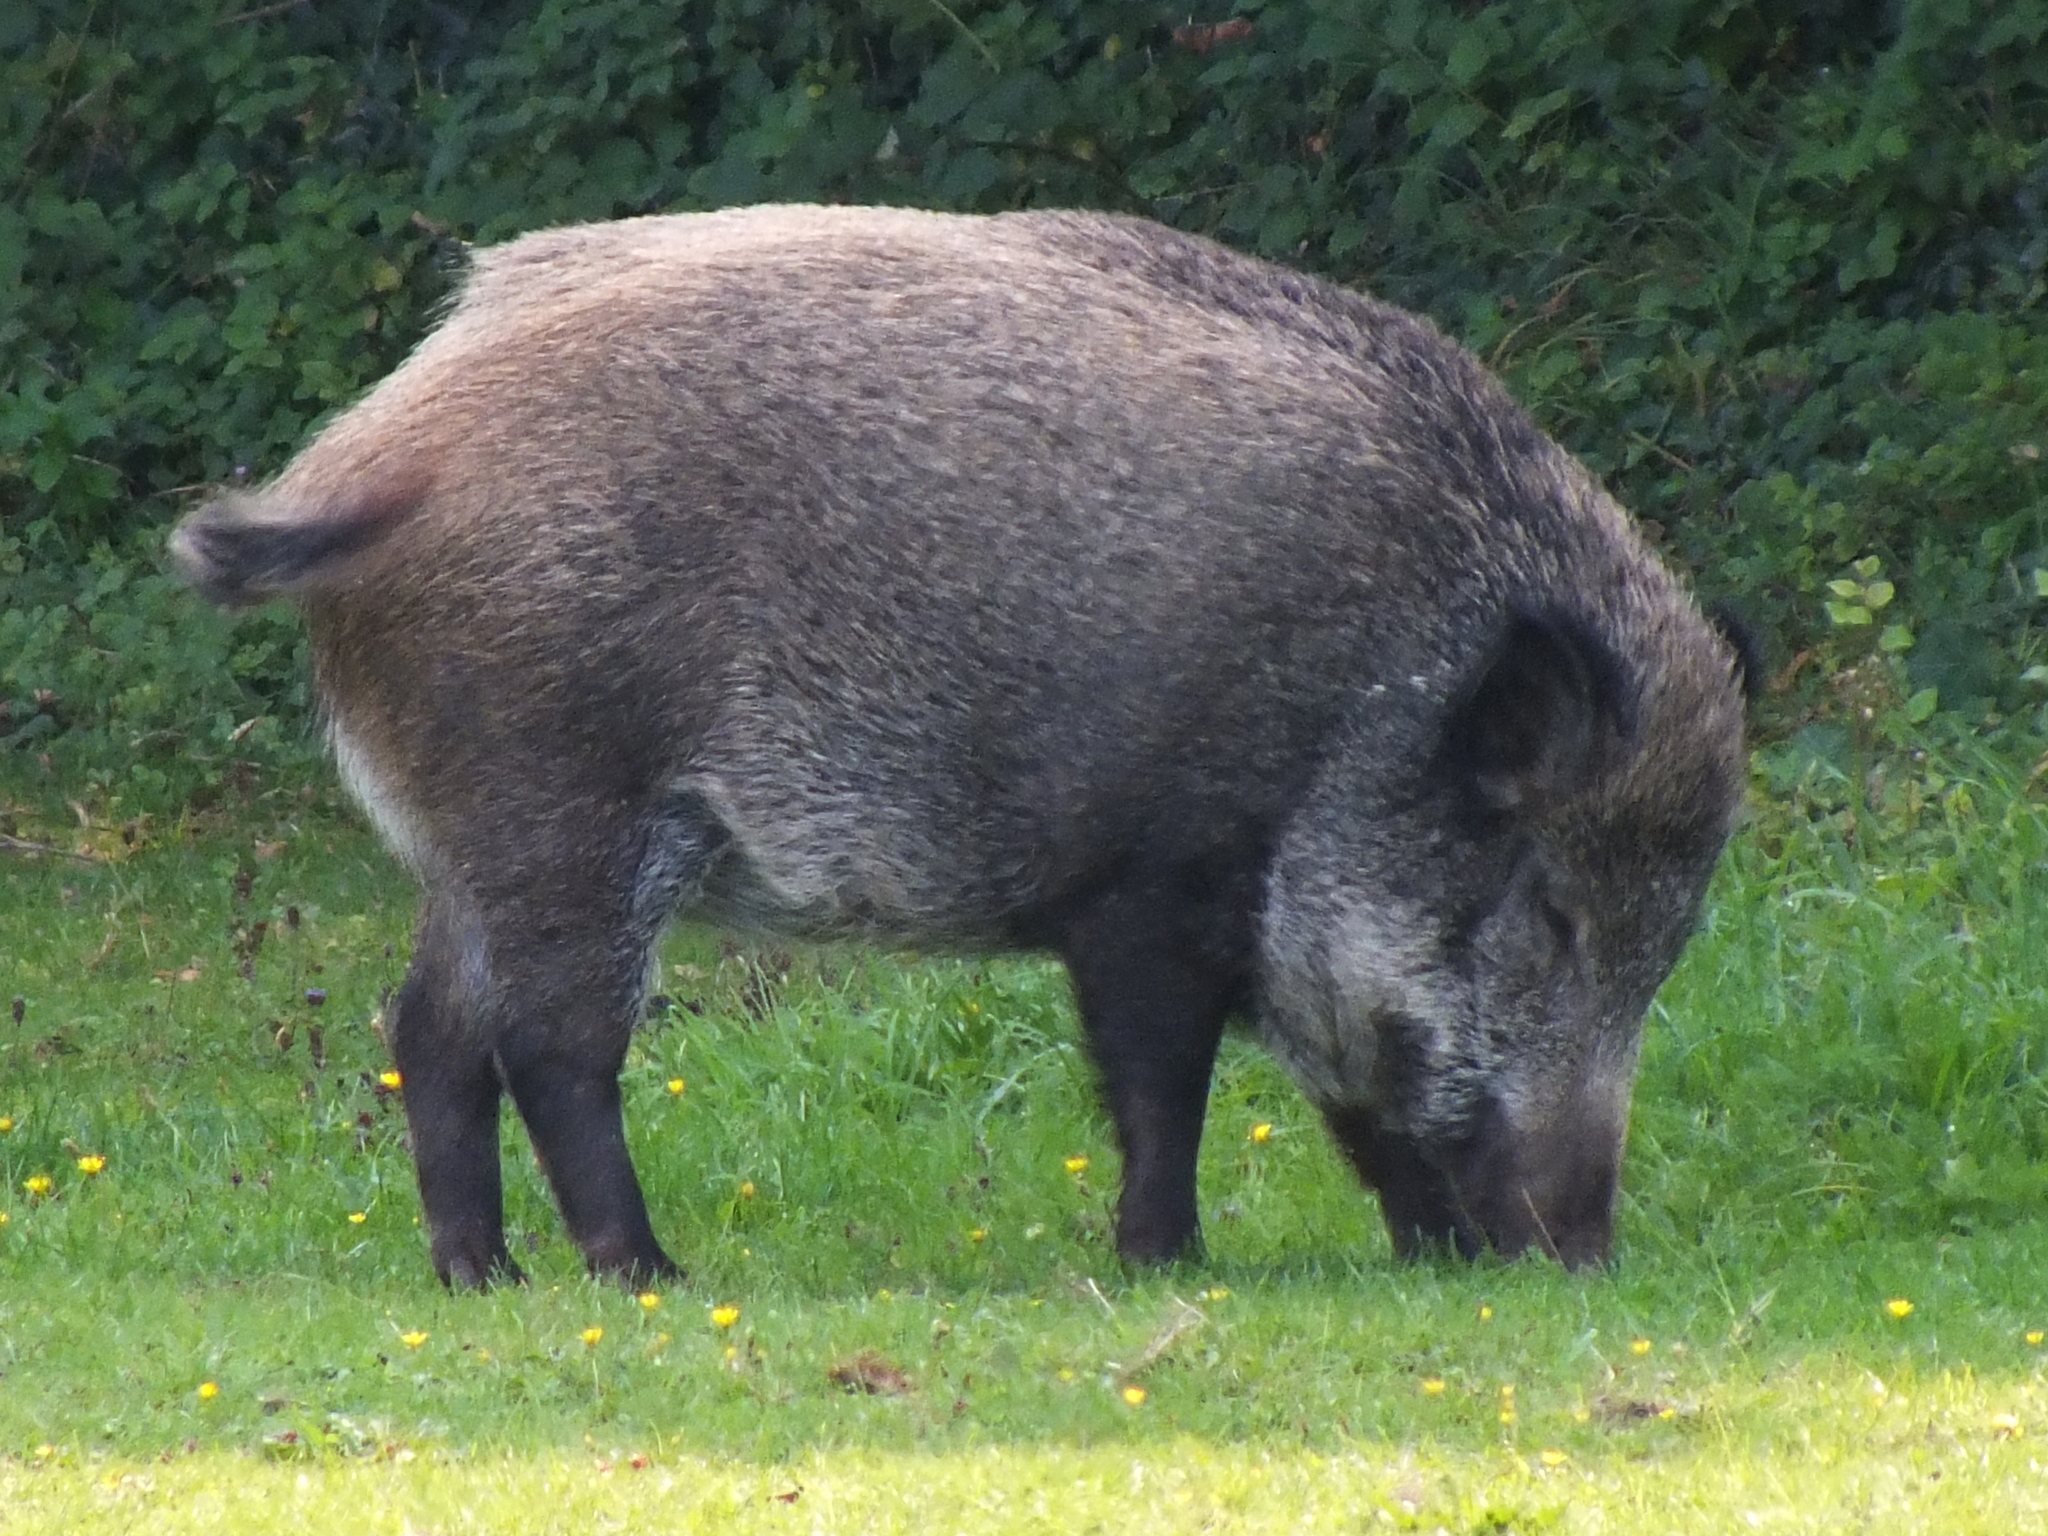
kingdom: Animalia
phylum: Chordata
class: Mammalia
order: Artiodactyla
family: Suidae
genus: Sus
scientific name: Sus scrofa
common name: Wild boar
